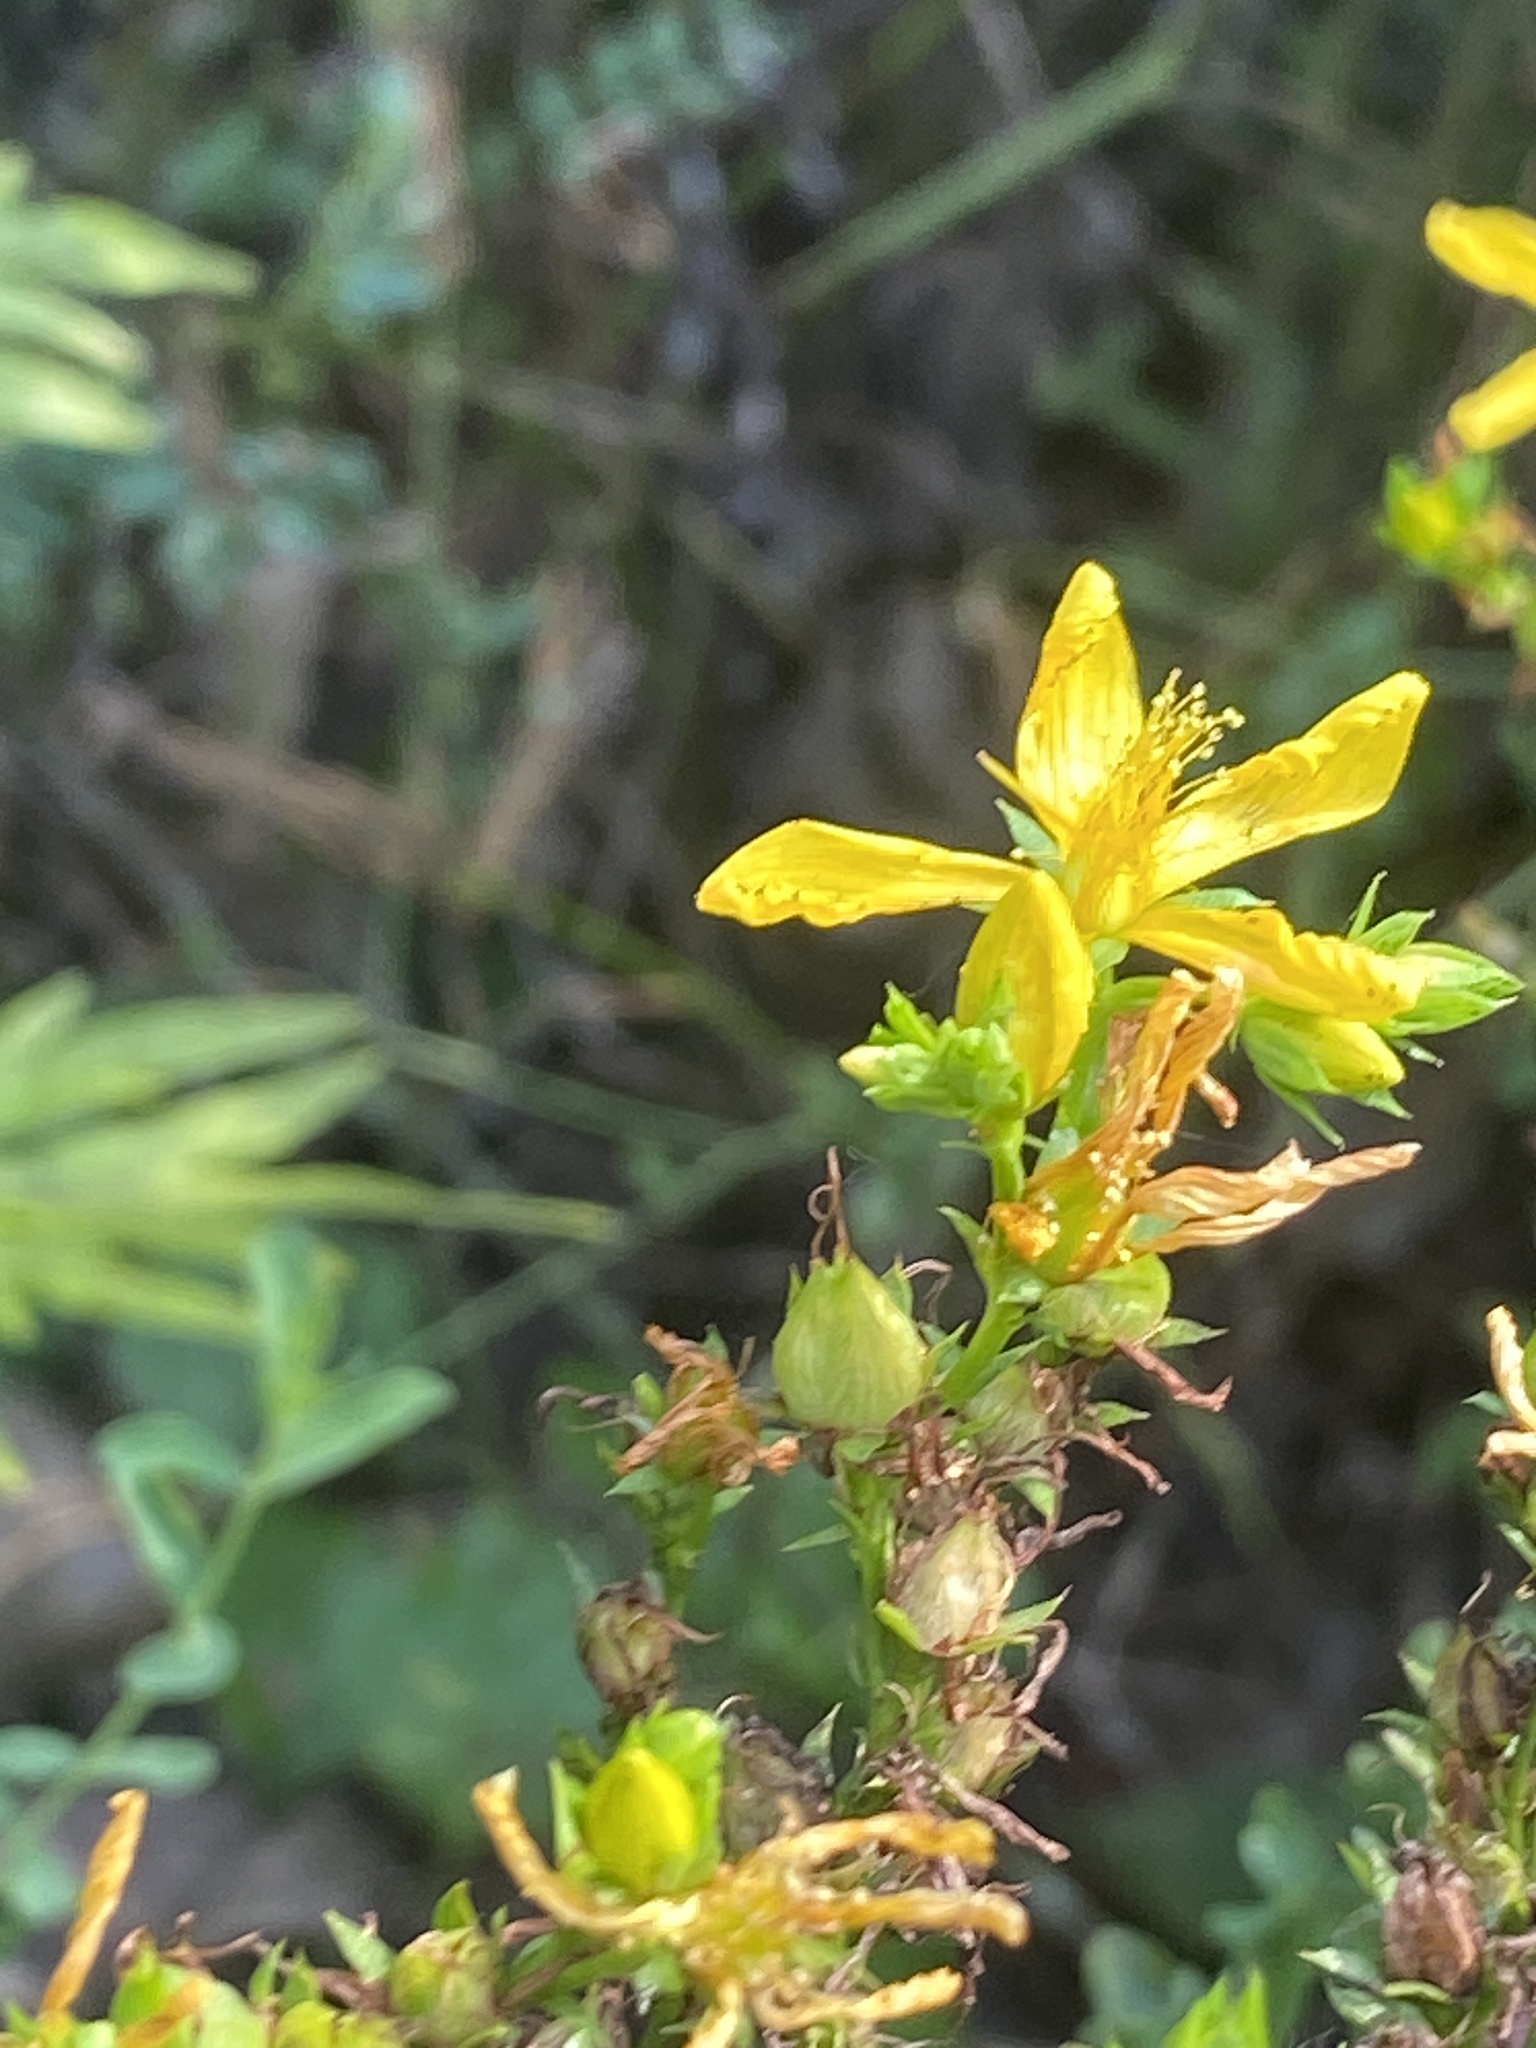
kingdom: Plantae
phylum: Tracheophyta
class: Magnoliopsida
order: Malpighiales
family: Hypericaceae
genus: Hypericum
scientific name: Hypericum perforatum
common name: Common st. johnswort
